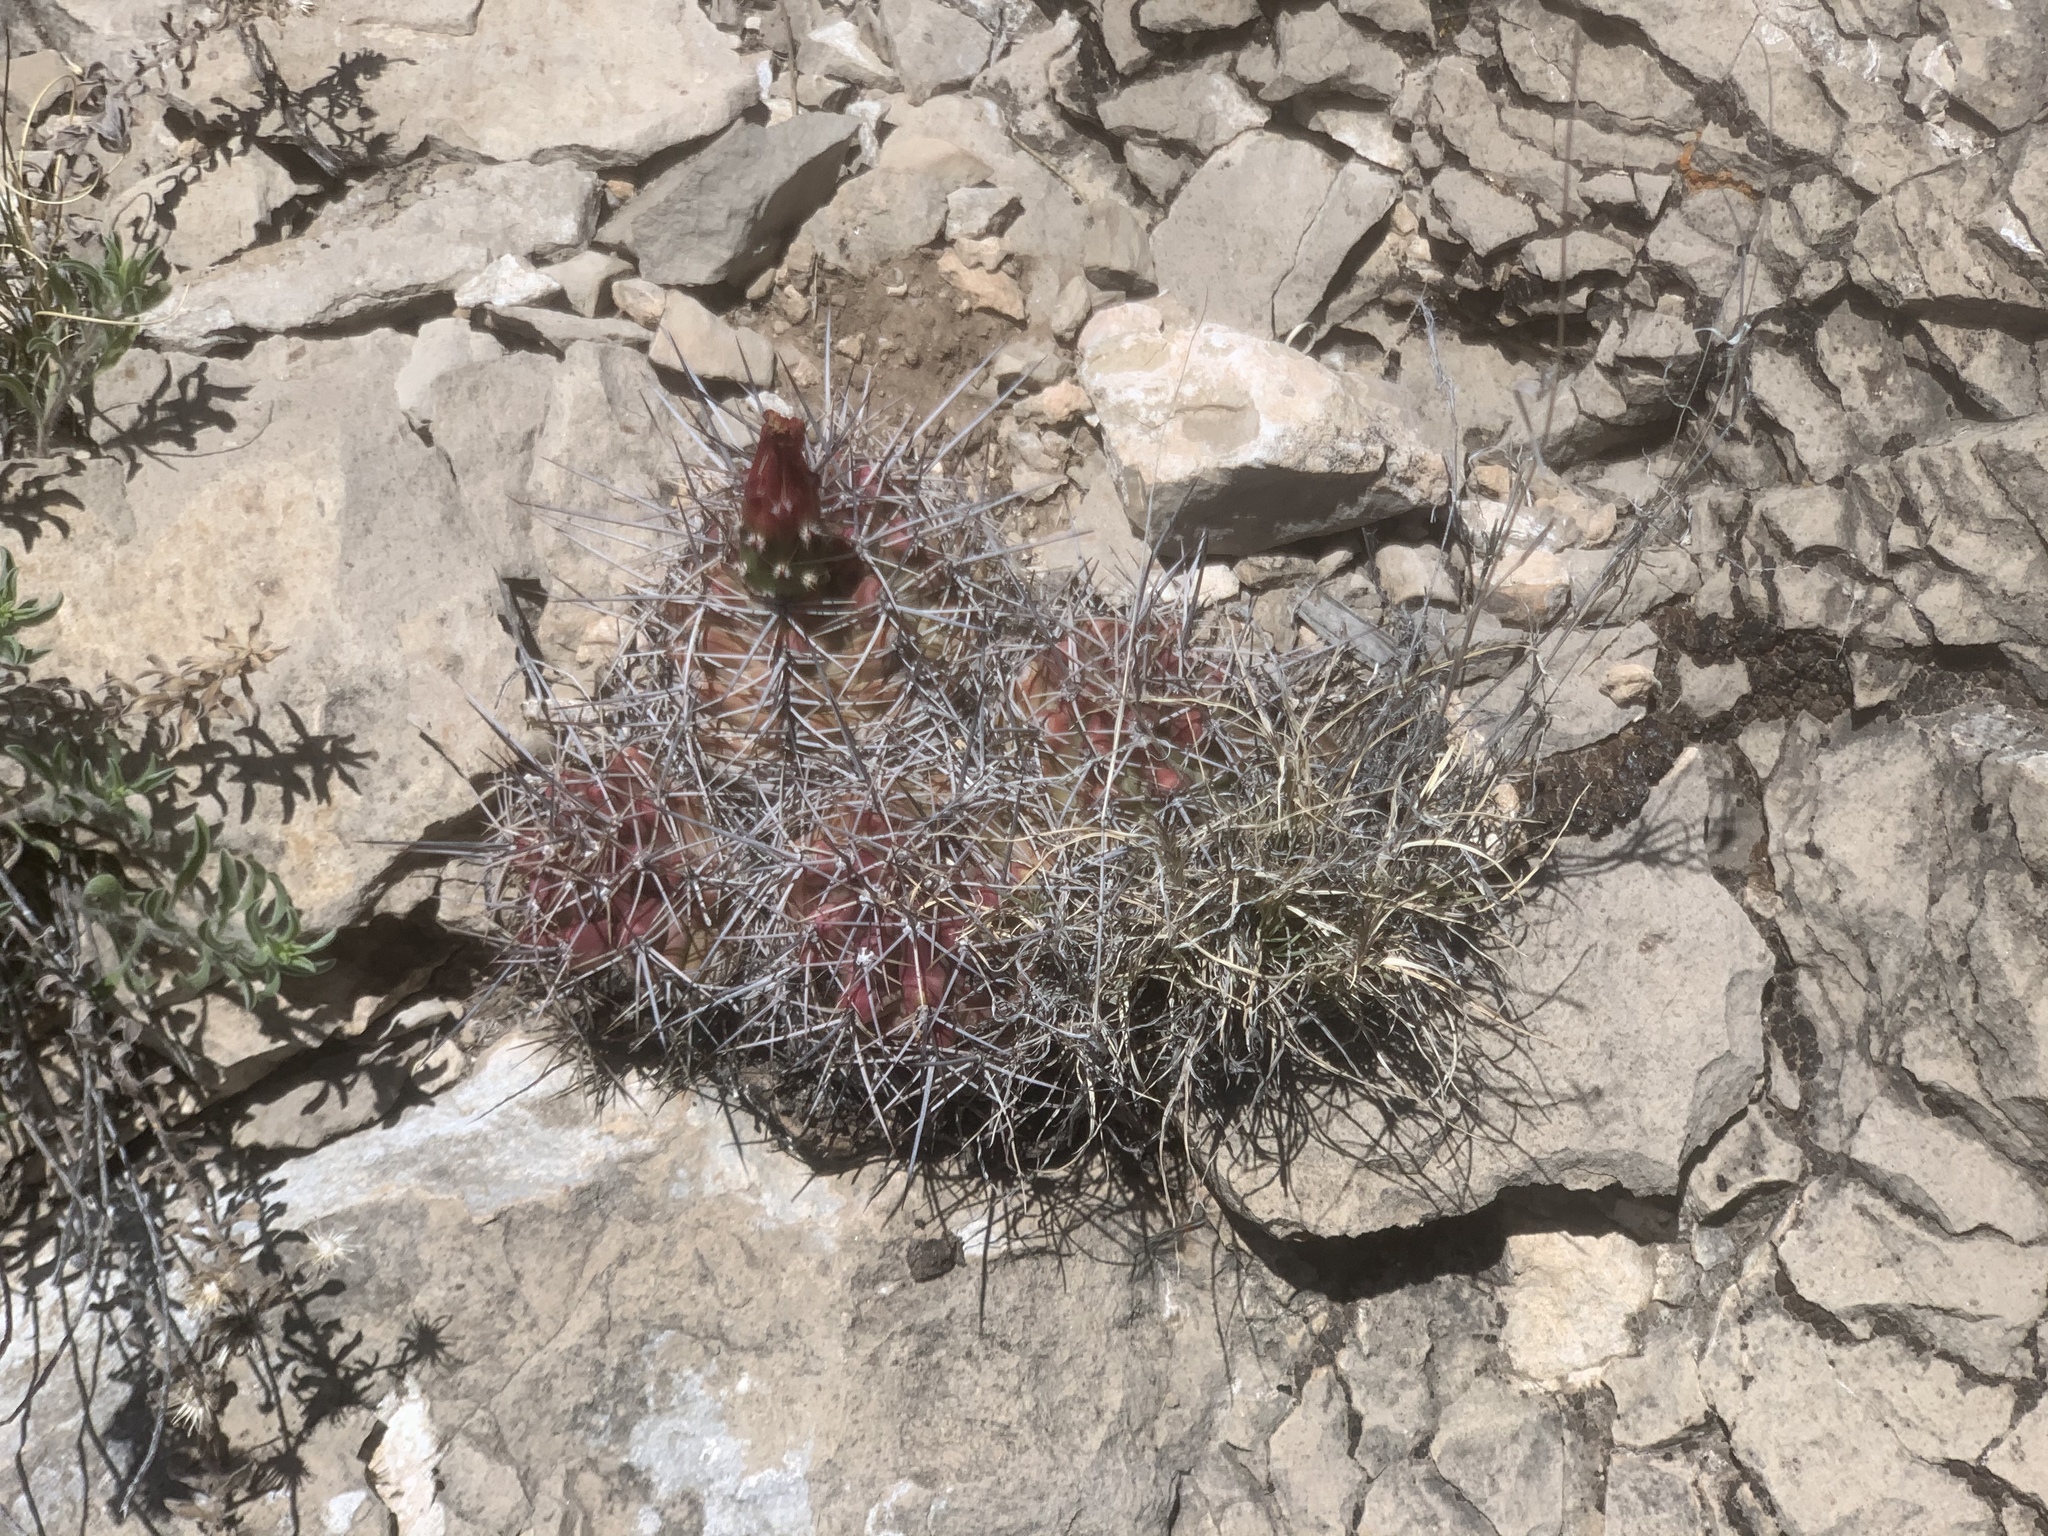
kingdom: Plantae
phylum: Tracheophyta
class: Magnoliopsida
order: Caryophyllales
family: Cactaceae
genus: Echinocereus
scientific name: Echinocereus coccineus
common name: Scarlet hedgehog cactus
